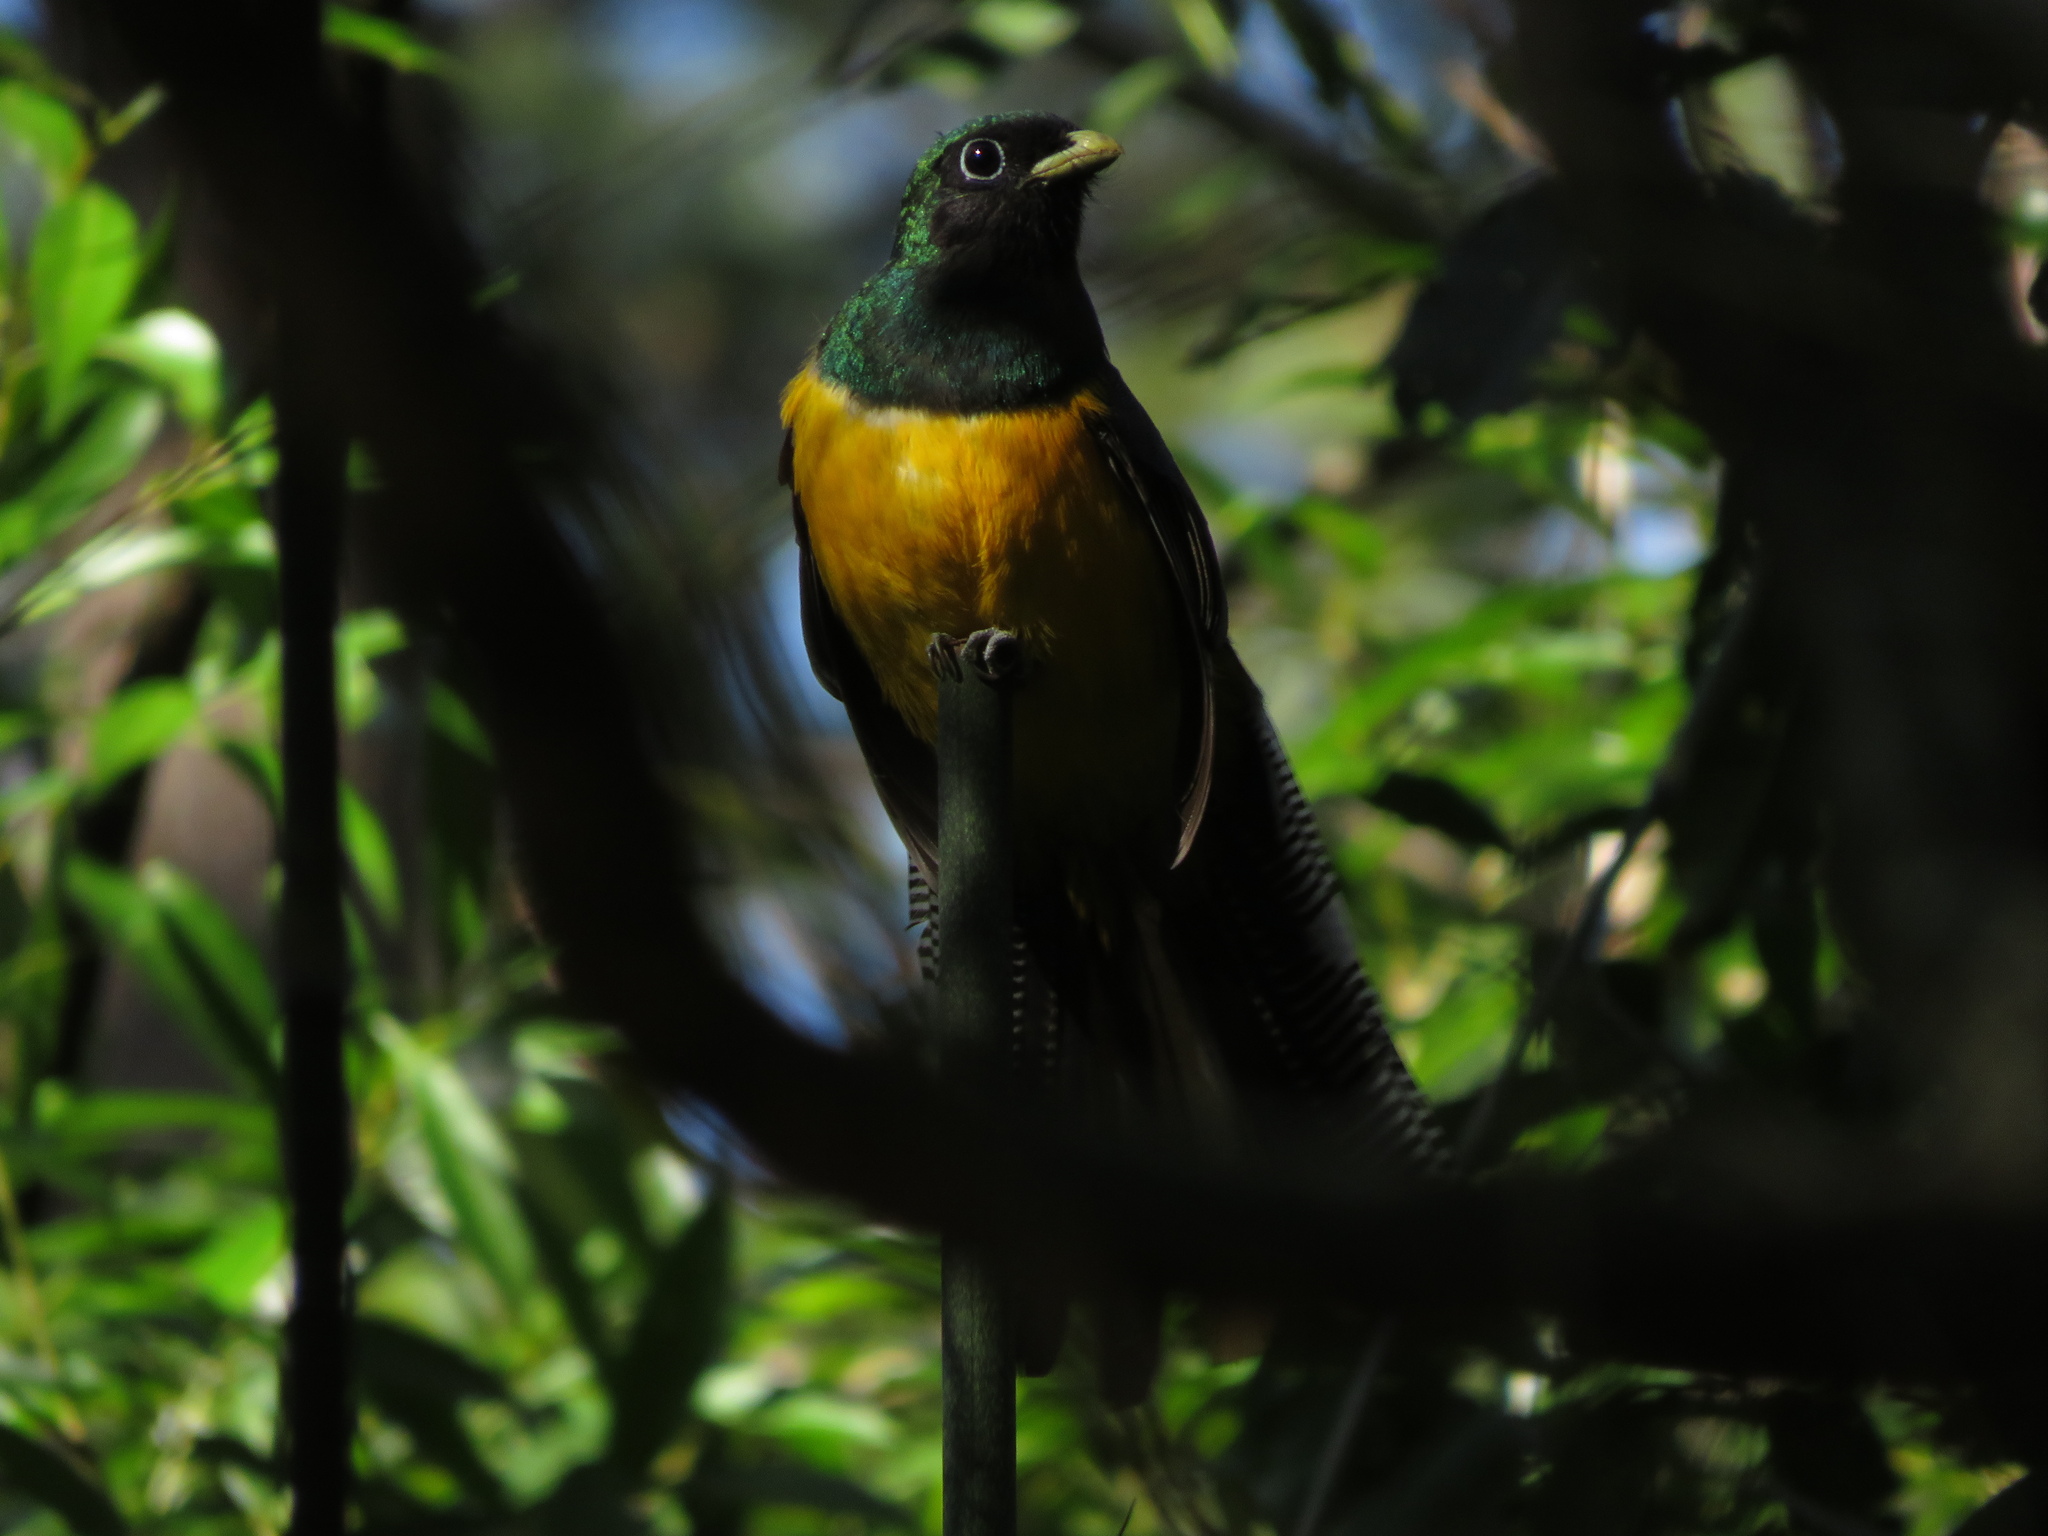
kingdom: Animalia
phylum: Chordata
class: Aves
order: Trogoniformes
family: Trogonidae
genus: Trogon
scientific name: Trogon rufus
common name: Black-throated trogon
